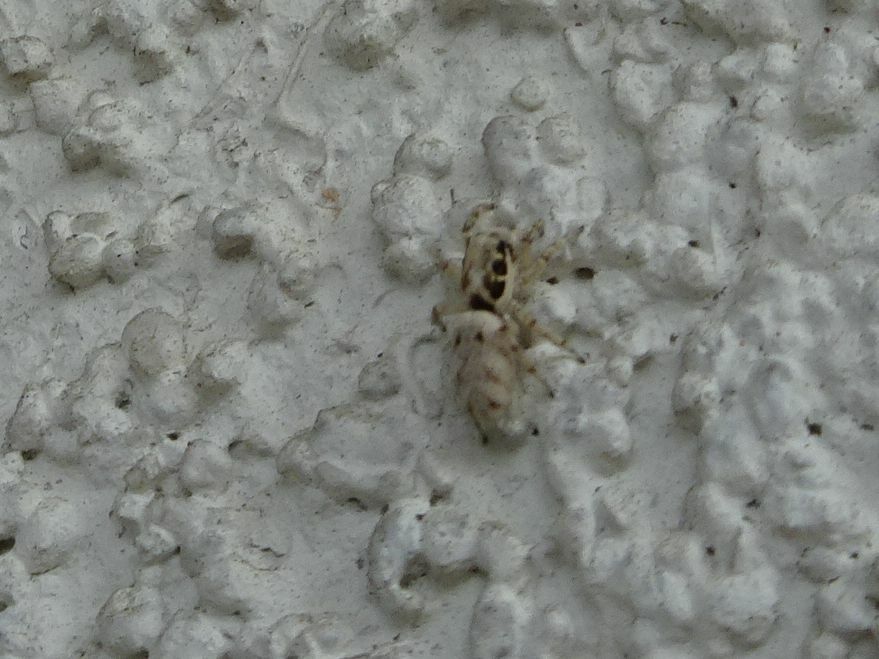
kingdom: Animalia
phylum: Arthropoda
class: Arachnida
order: Araneae
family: Salticidae
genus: Salticus
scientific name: Salticus mutabilis
